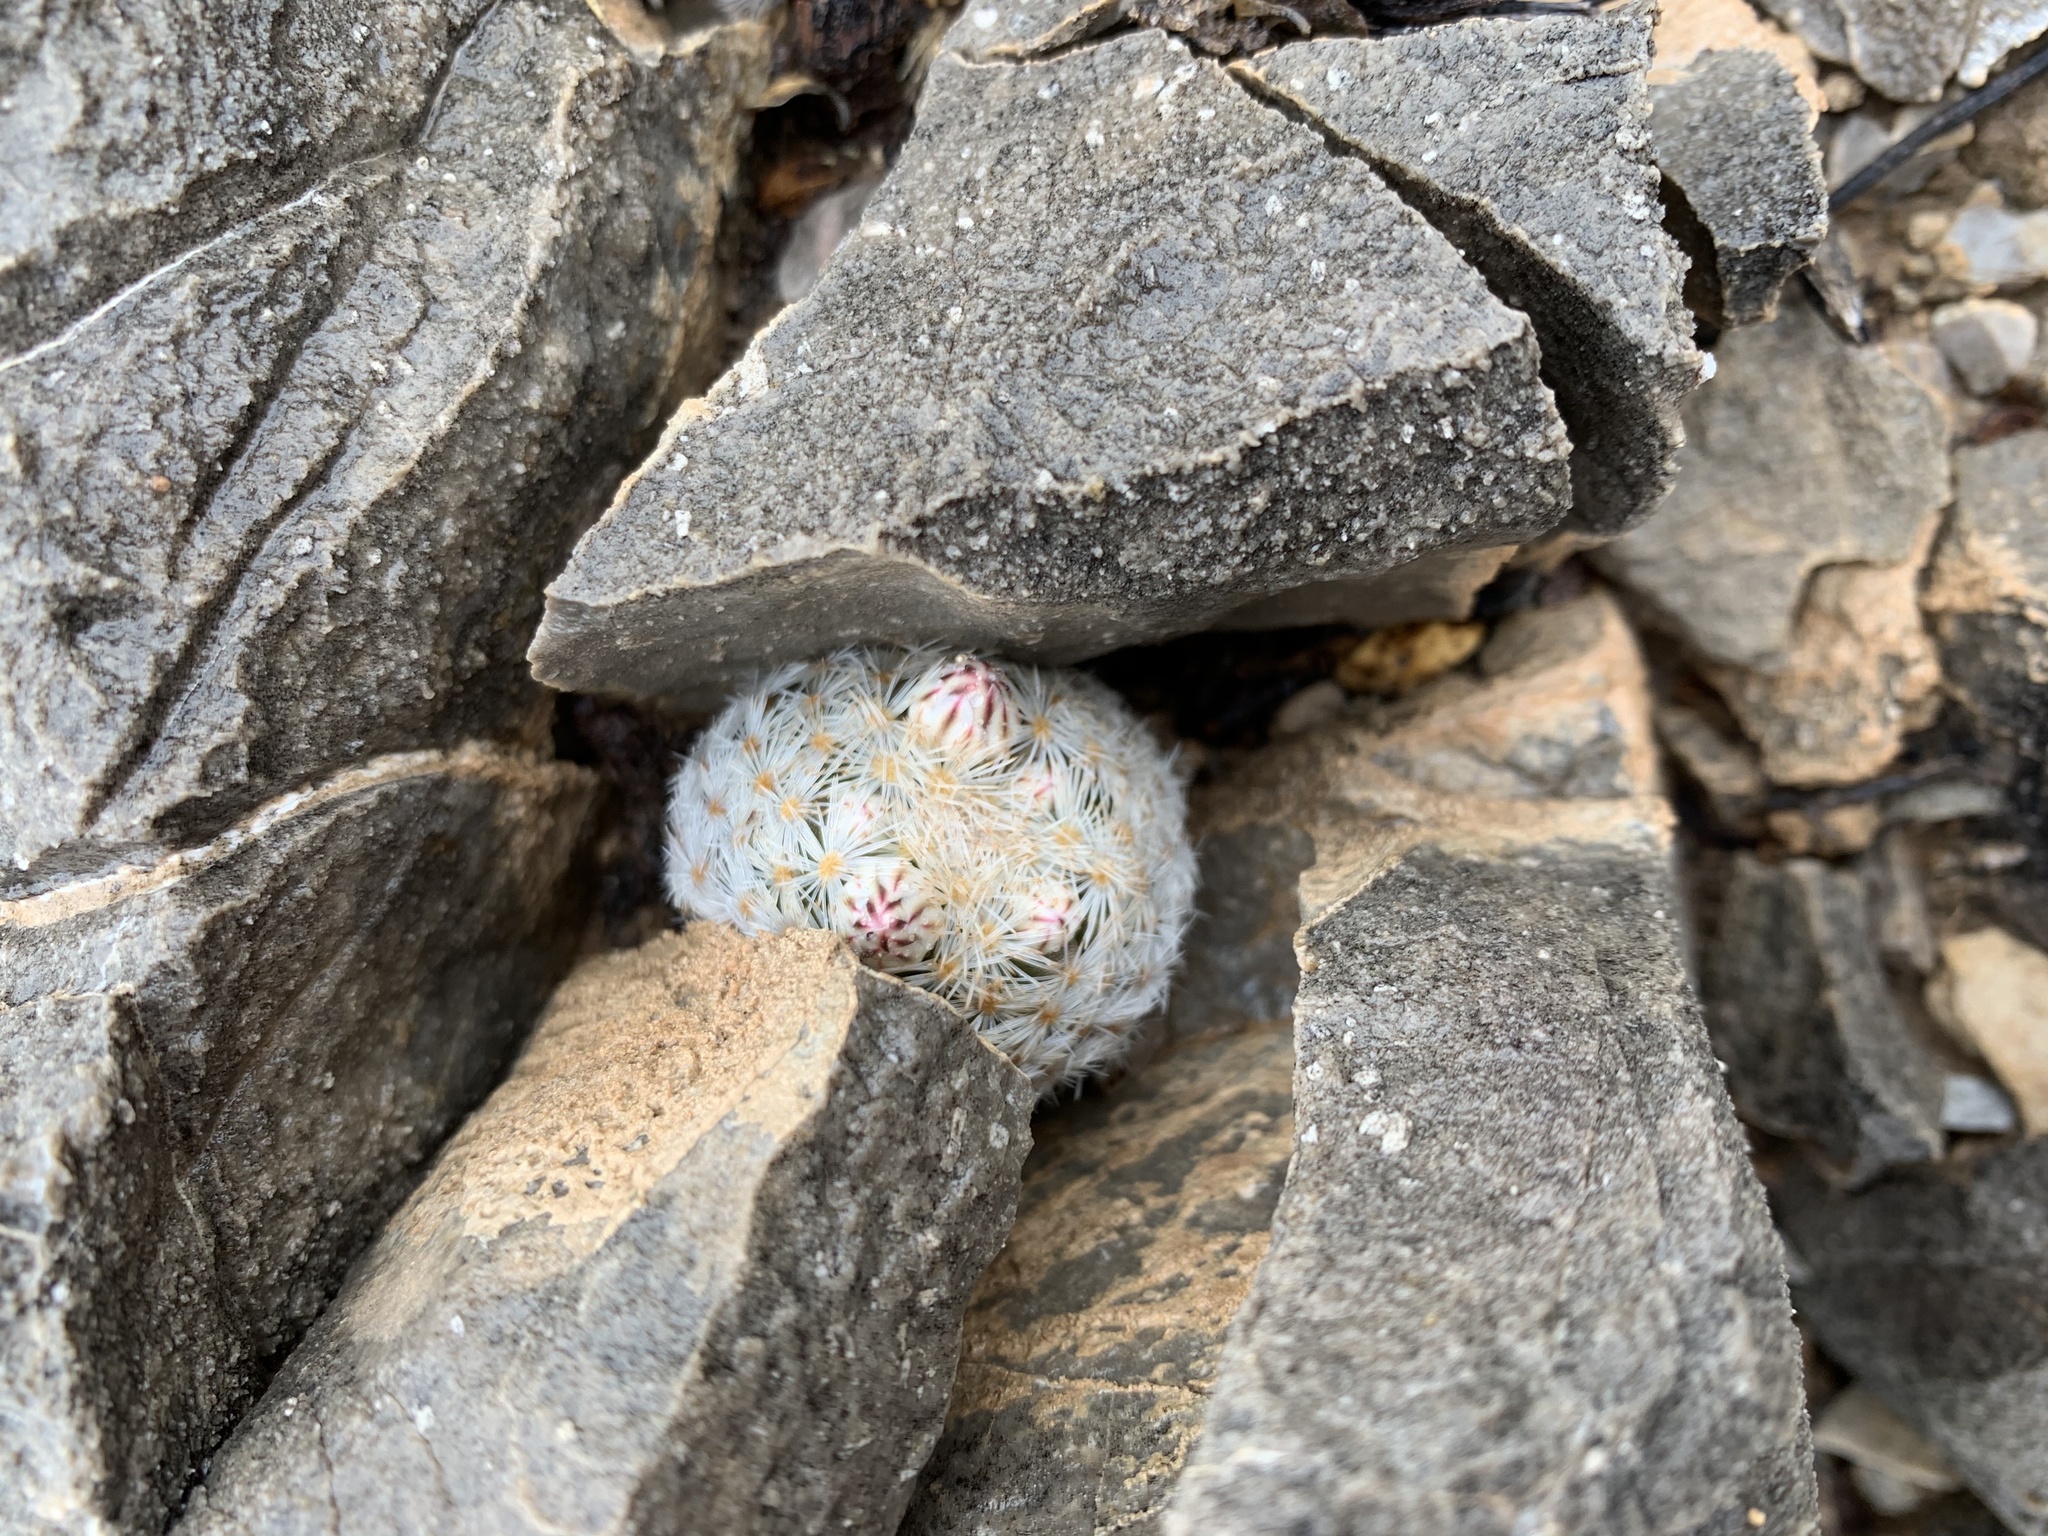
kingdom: Plantae
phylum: Tracheophyta
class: Magnoliopsida
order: Caryophyllales
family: Cactaceae
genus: Mammillaria
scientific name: Mammillaria lasiacantha
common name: Lace-spine nipple cactus
